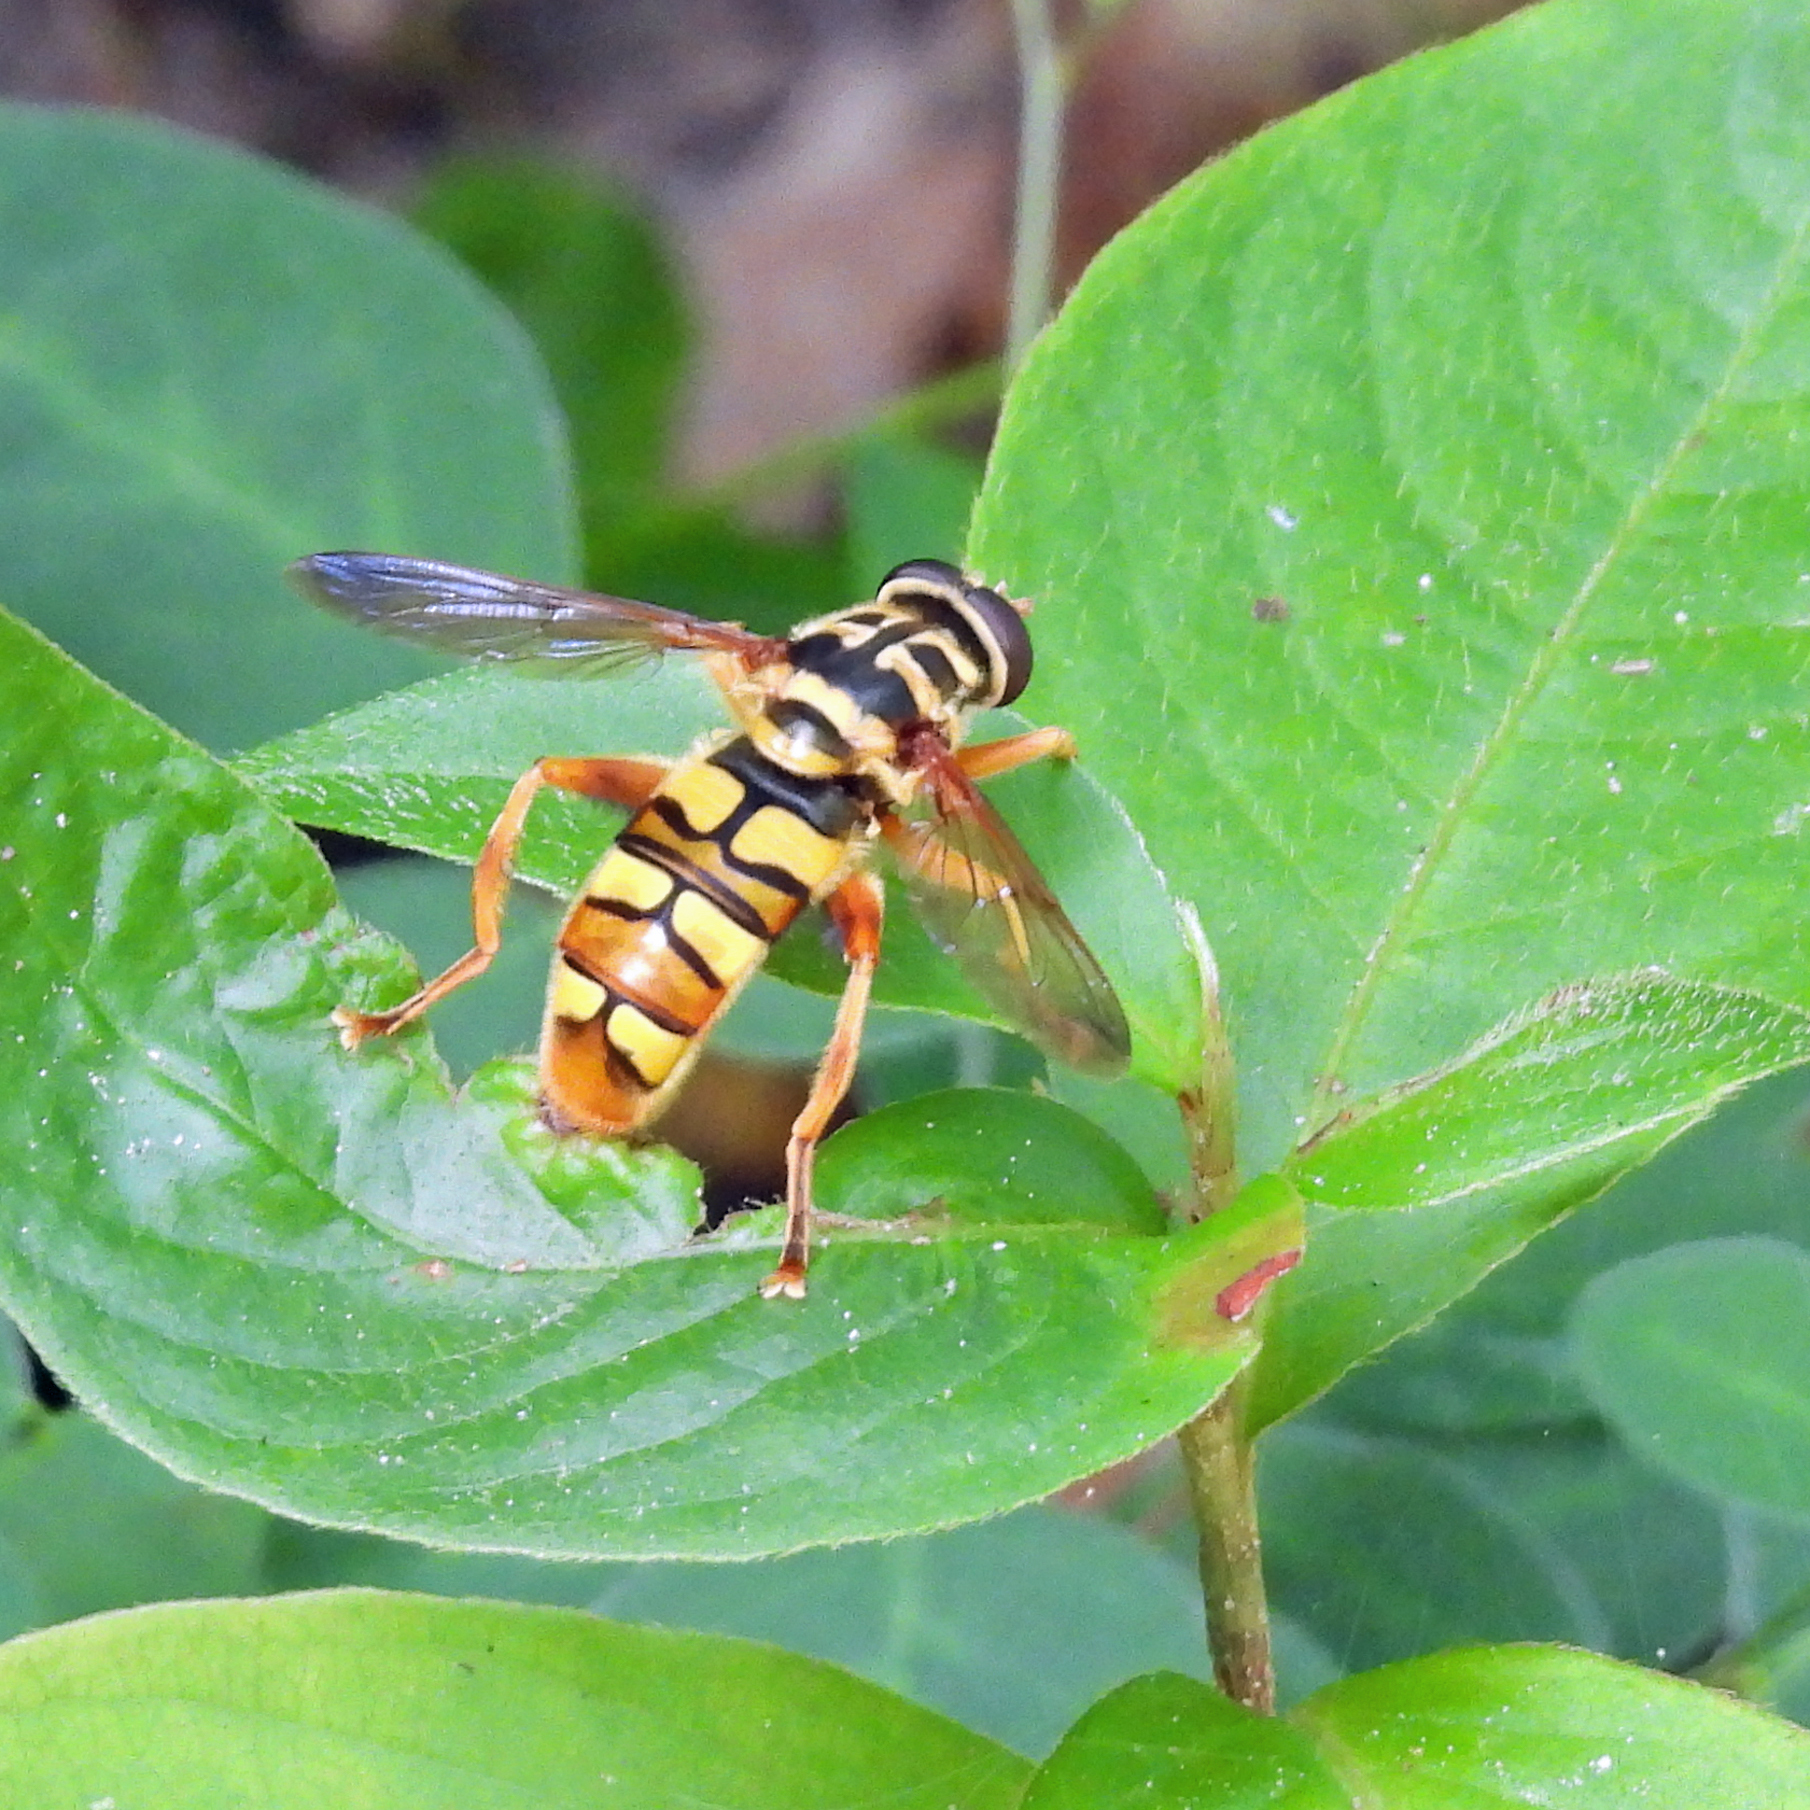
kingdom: Animalia
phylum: Arthropoda
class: Insecta
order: Diptera
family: Syrphidae
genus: Milesia
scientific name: Milesia virginiensis
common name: Virginia giant
